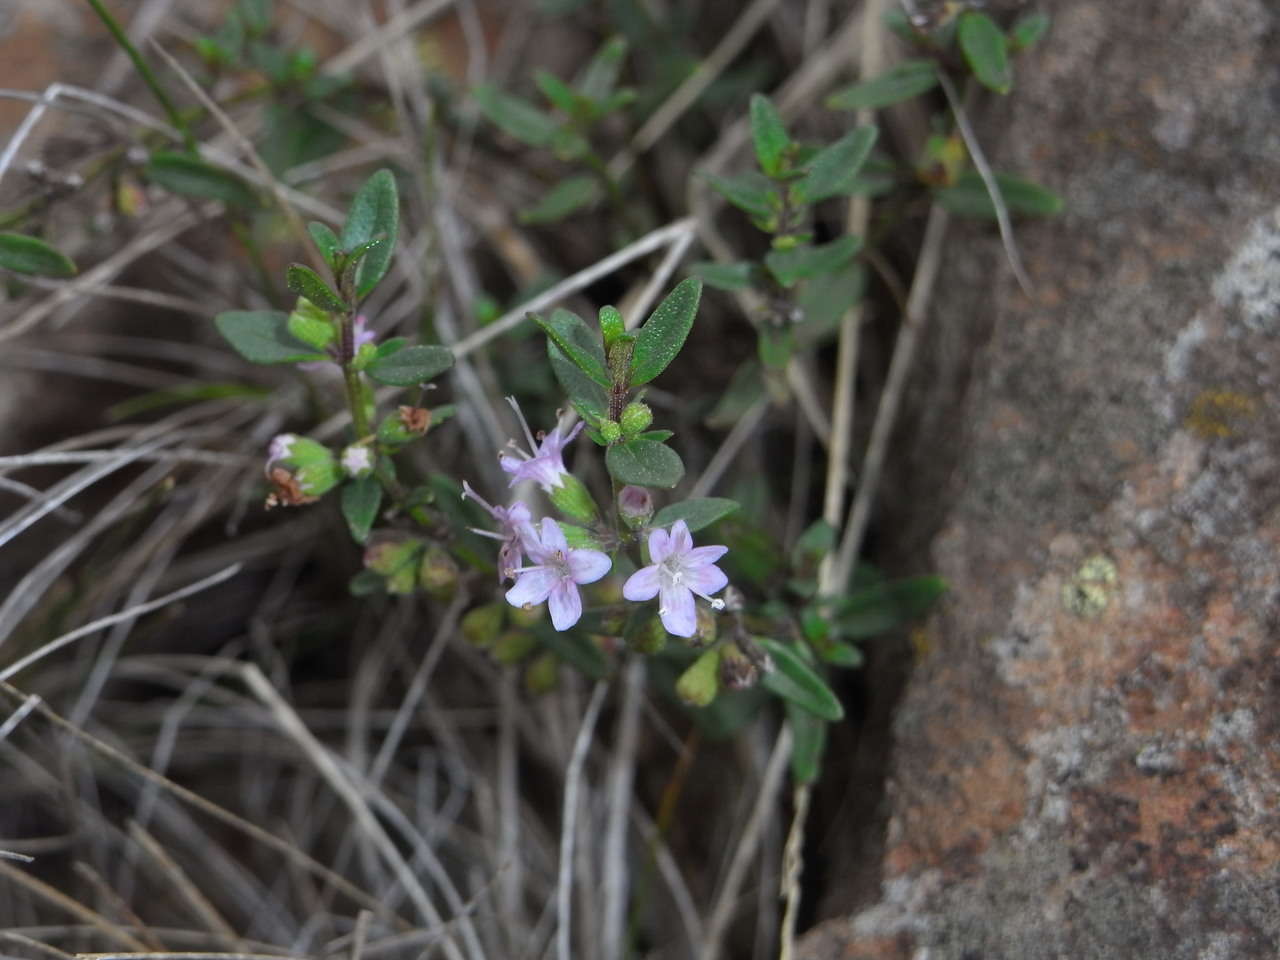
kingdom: Plantae
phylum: Tracheophyta
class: Magnoliopsida
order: Lamiales
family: Lamiaceae
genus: Mentha
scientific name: Mentha satureioides
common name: Brisbane pennyroyal
